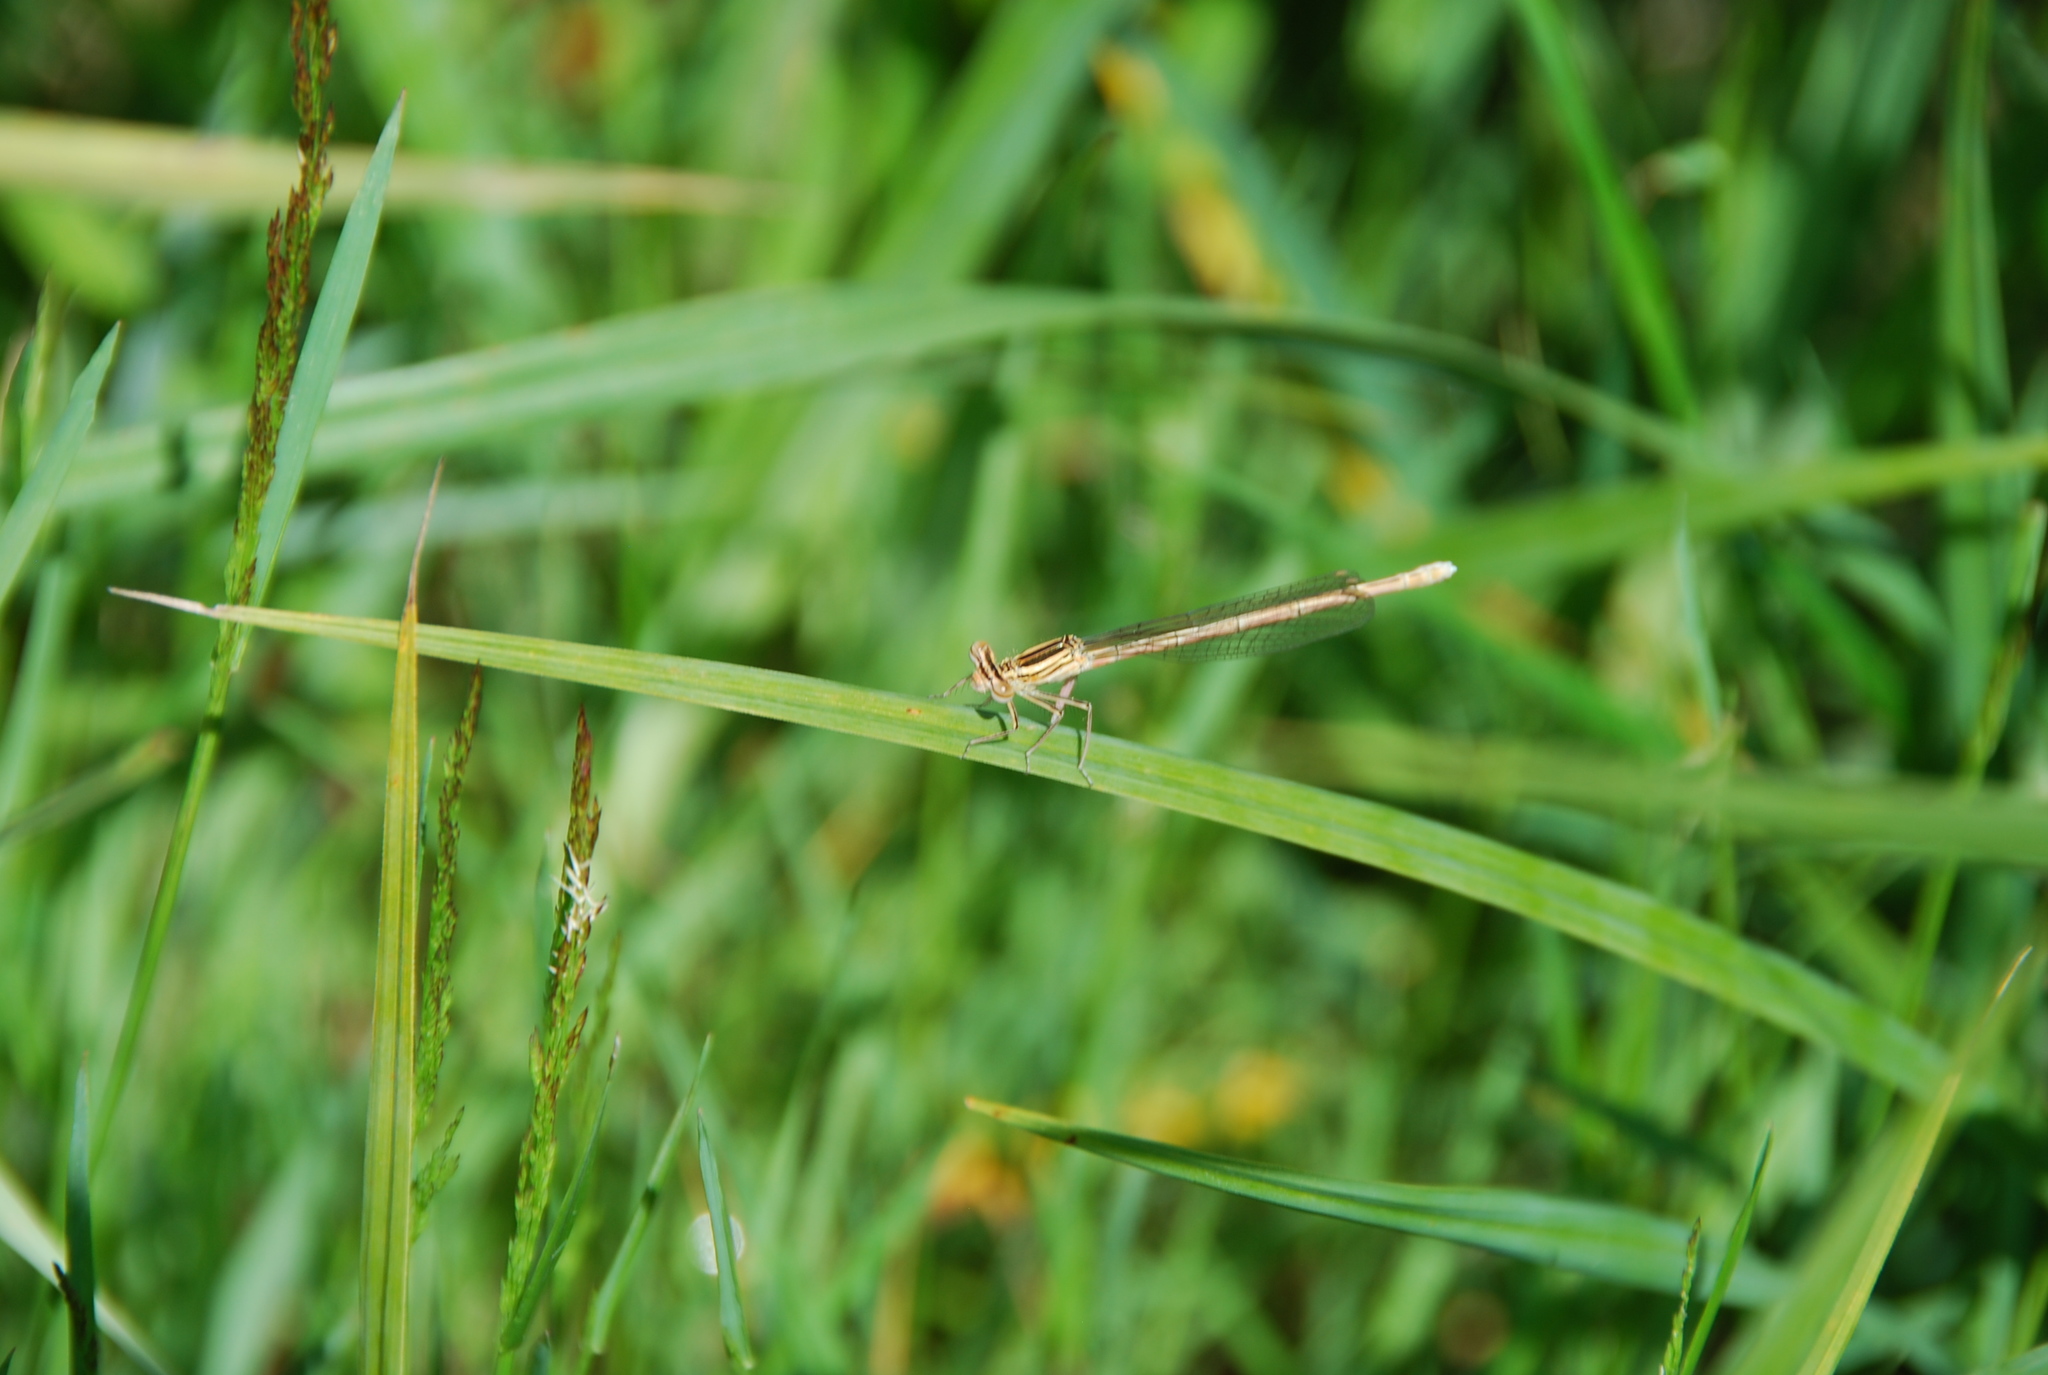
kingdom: Animalia
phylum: Arthropoda
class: Insecta
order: Odonata
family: Platycnemididae
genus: Platycnemis
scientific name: Platycnemis pennipes
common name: White-legged damselfly
